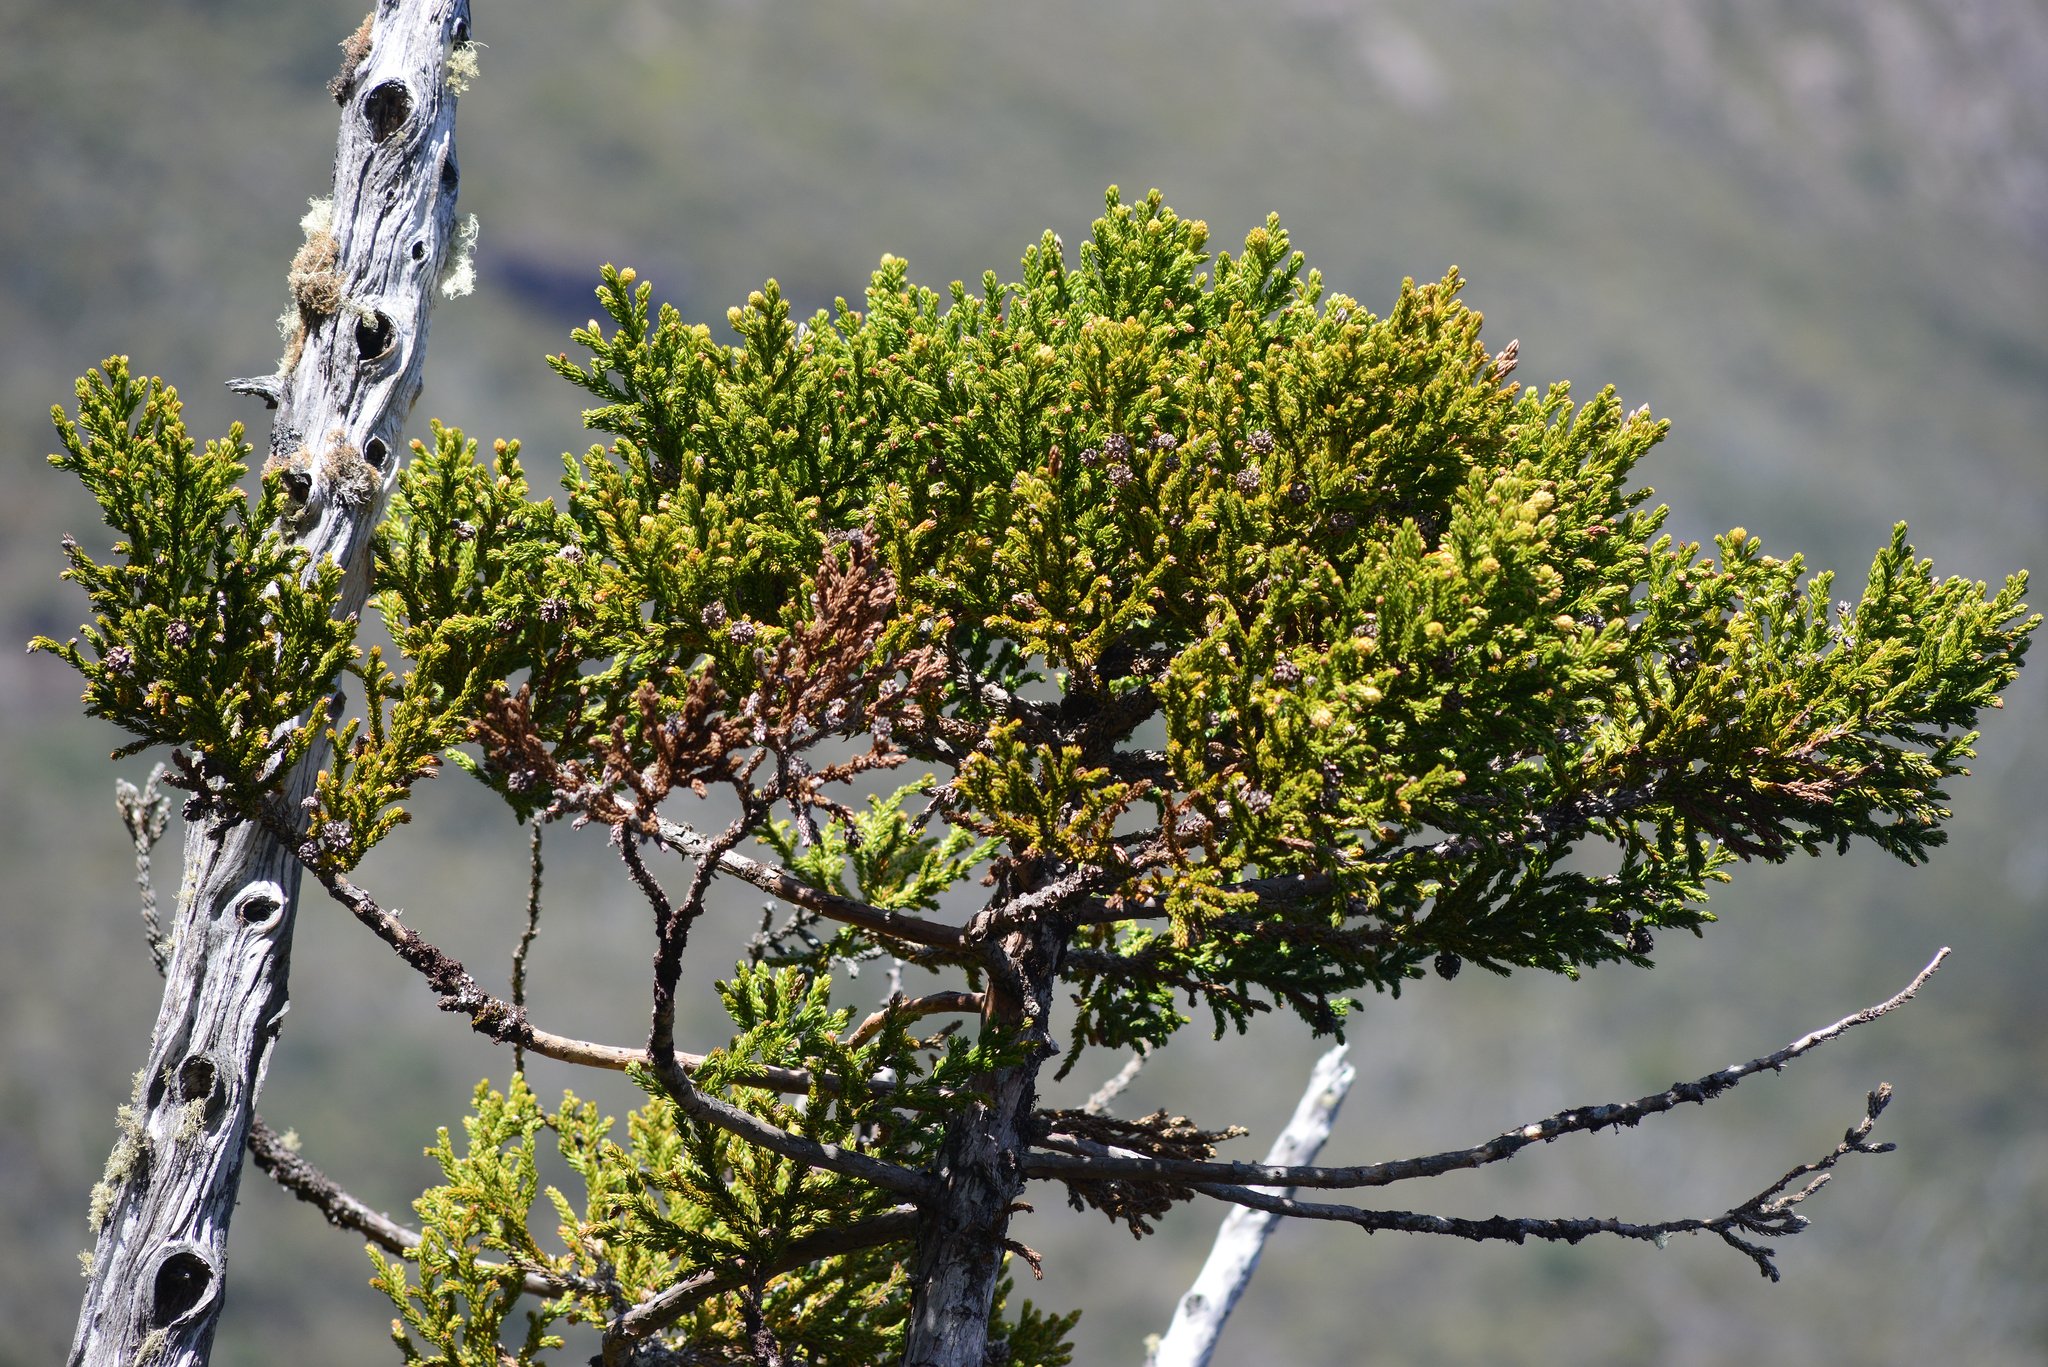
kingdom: Plantae
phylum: Tracheophyta
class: Pinopsida
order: Pinales
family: Cupressaceae
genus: Athrotaxis
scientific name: Athrotaxis selaginoides
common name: King william pine
